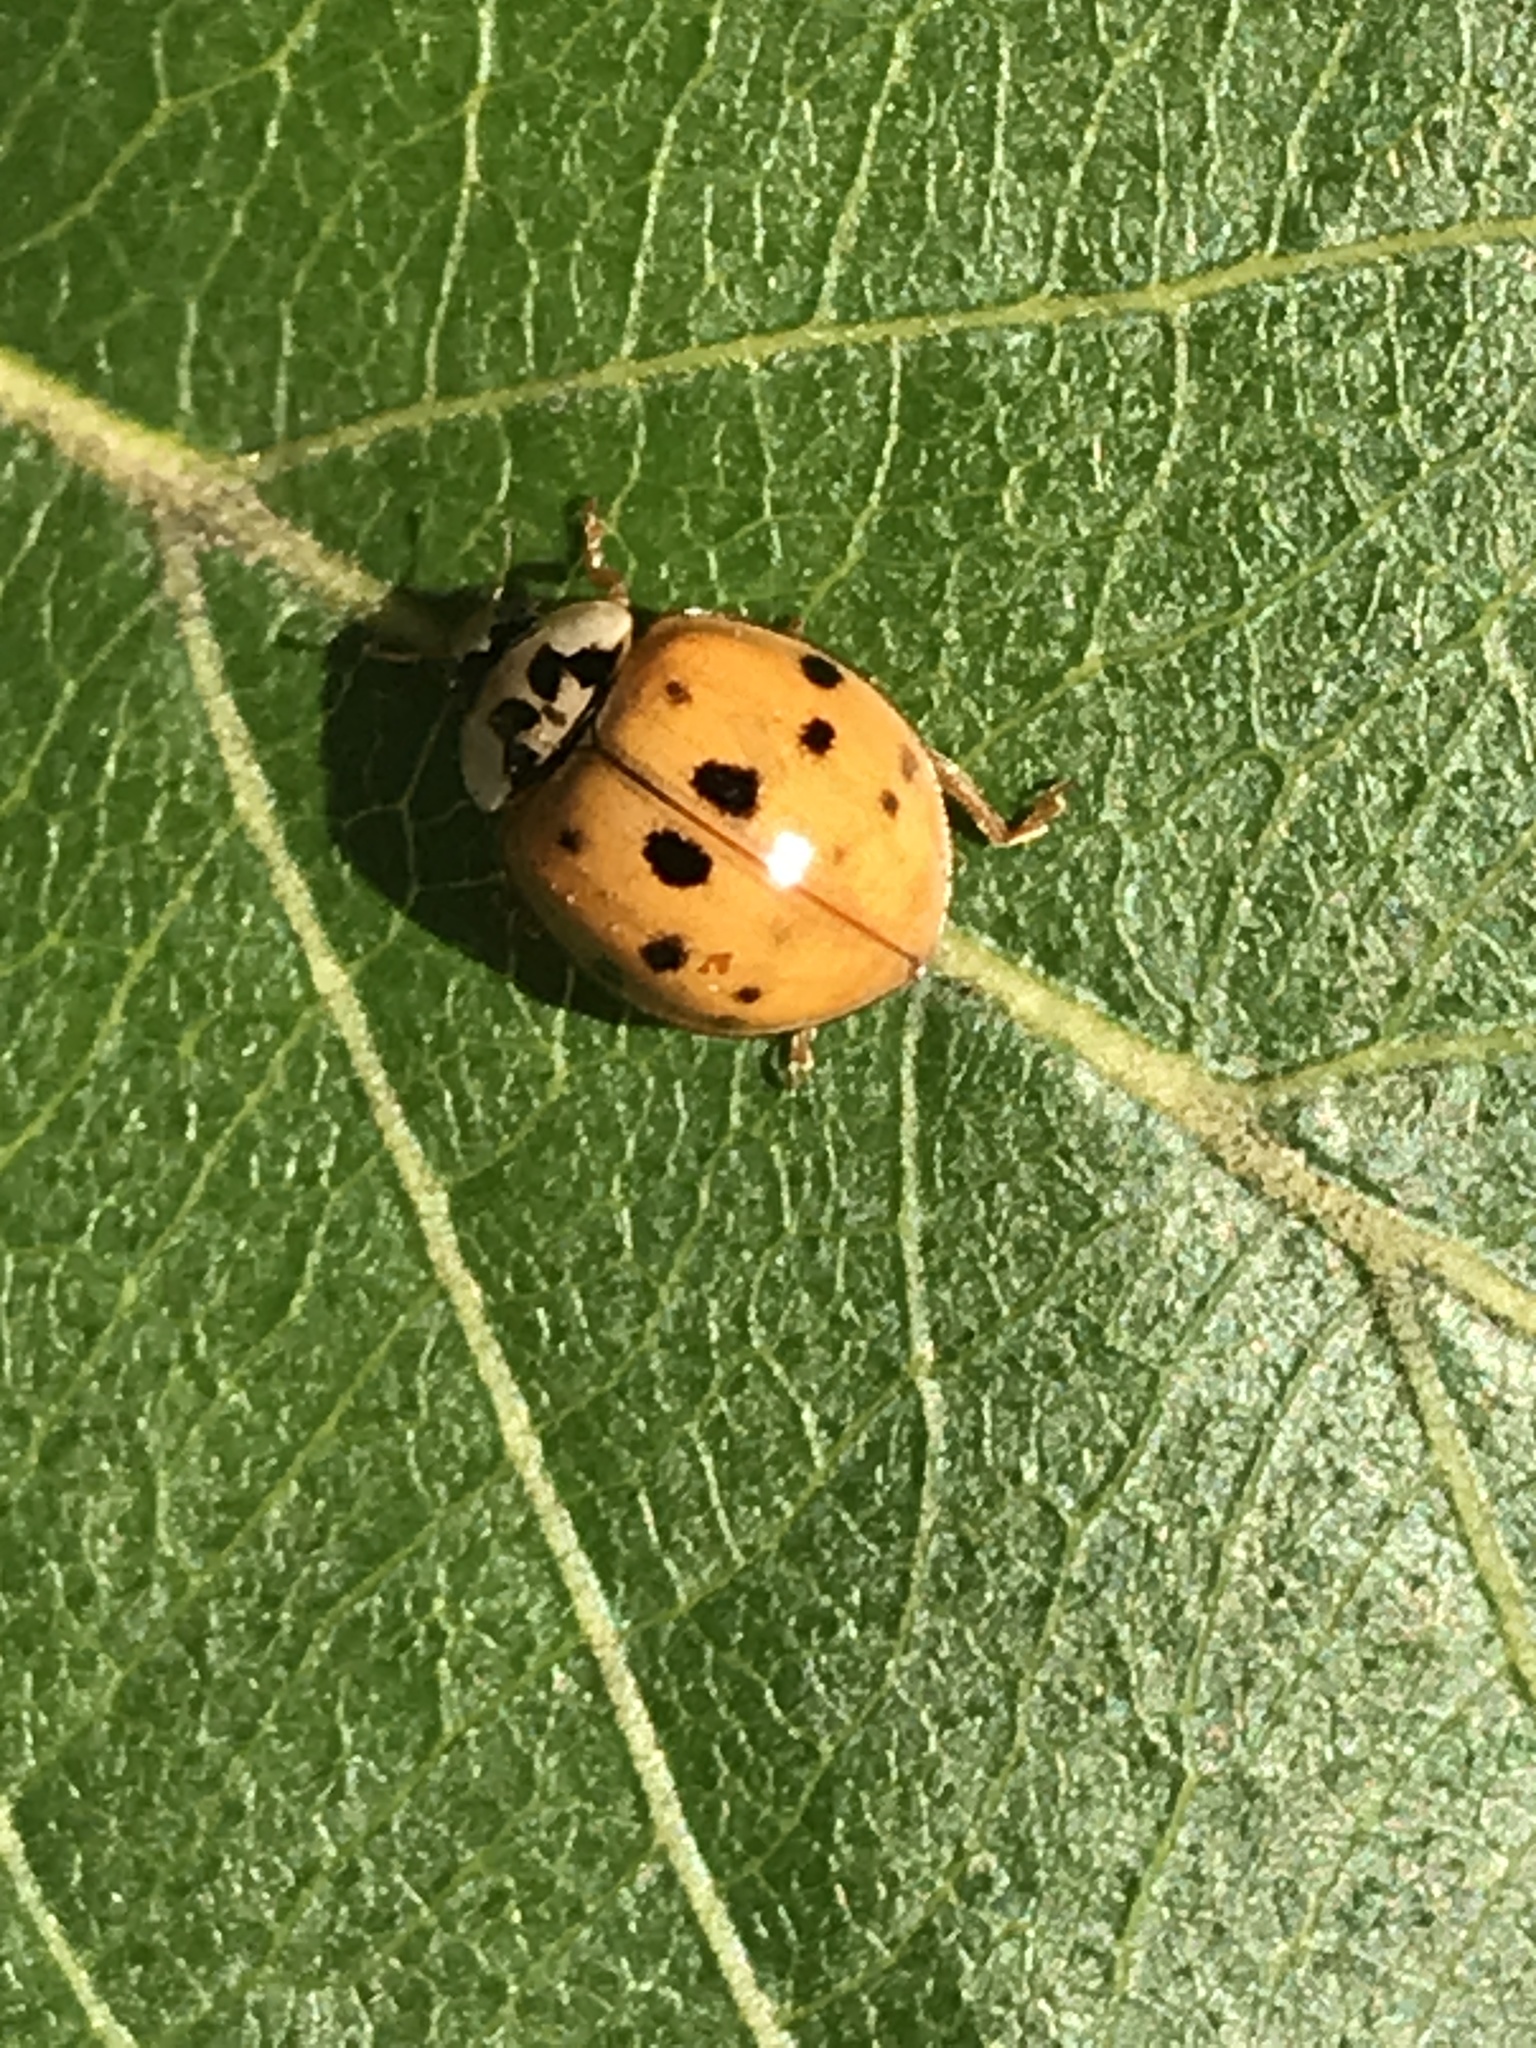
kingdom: Animalia
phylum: Arthropoda
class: Insecta
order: Coleoptera
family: Coccinellidae
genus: Harmonia
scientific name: Harmonia axyridis
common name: Harlequin ladybird
